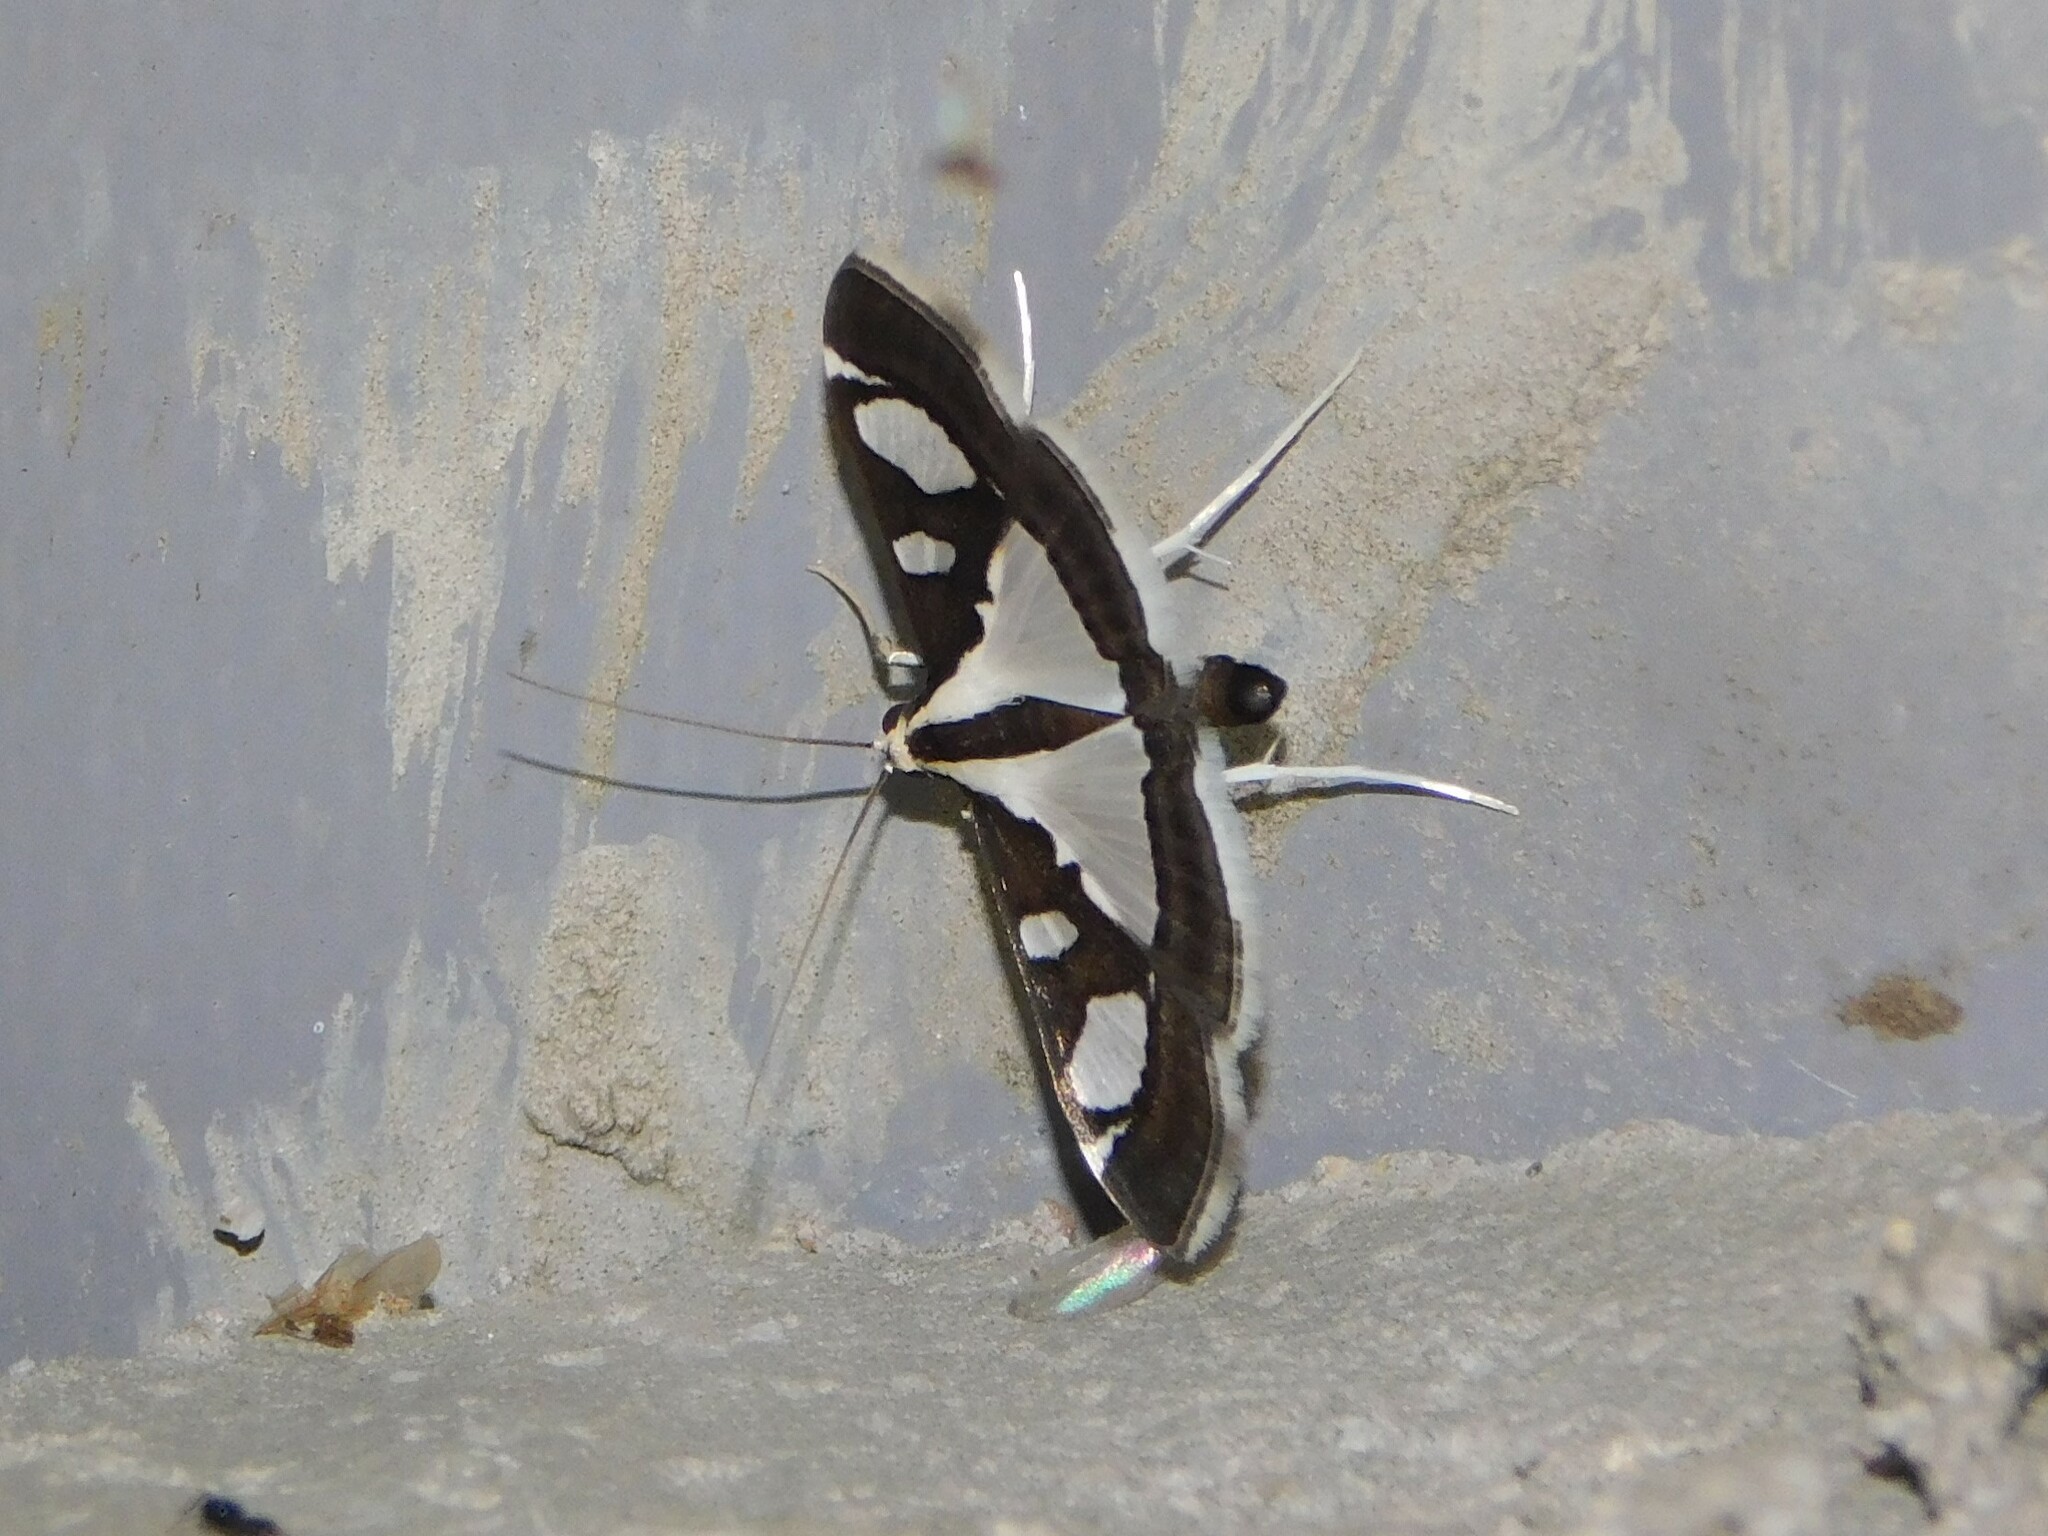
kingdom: Animalia
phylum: Arthropoda
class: Insecta
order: Lepidoptera
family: Crambidae
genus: Glyphodes
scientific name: Glyphodes bicolor
